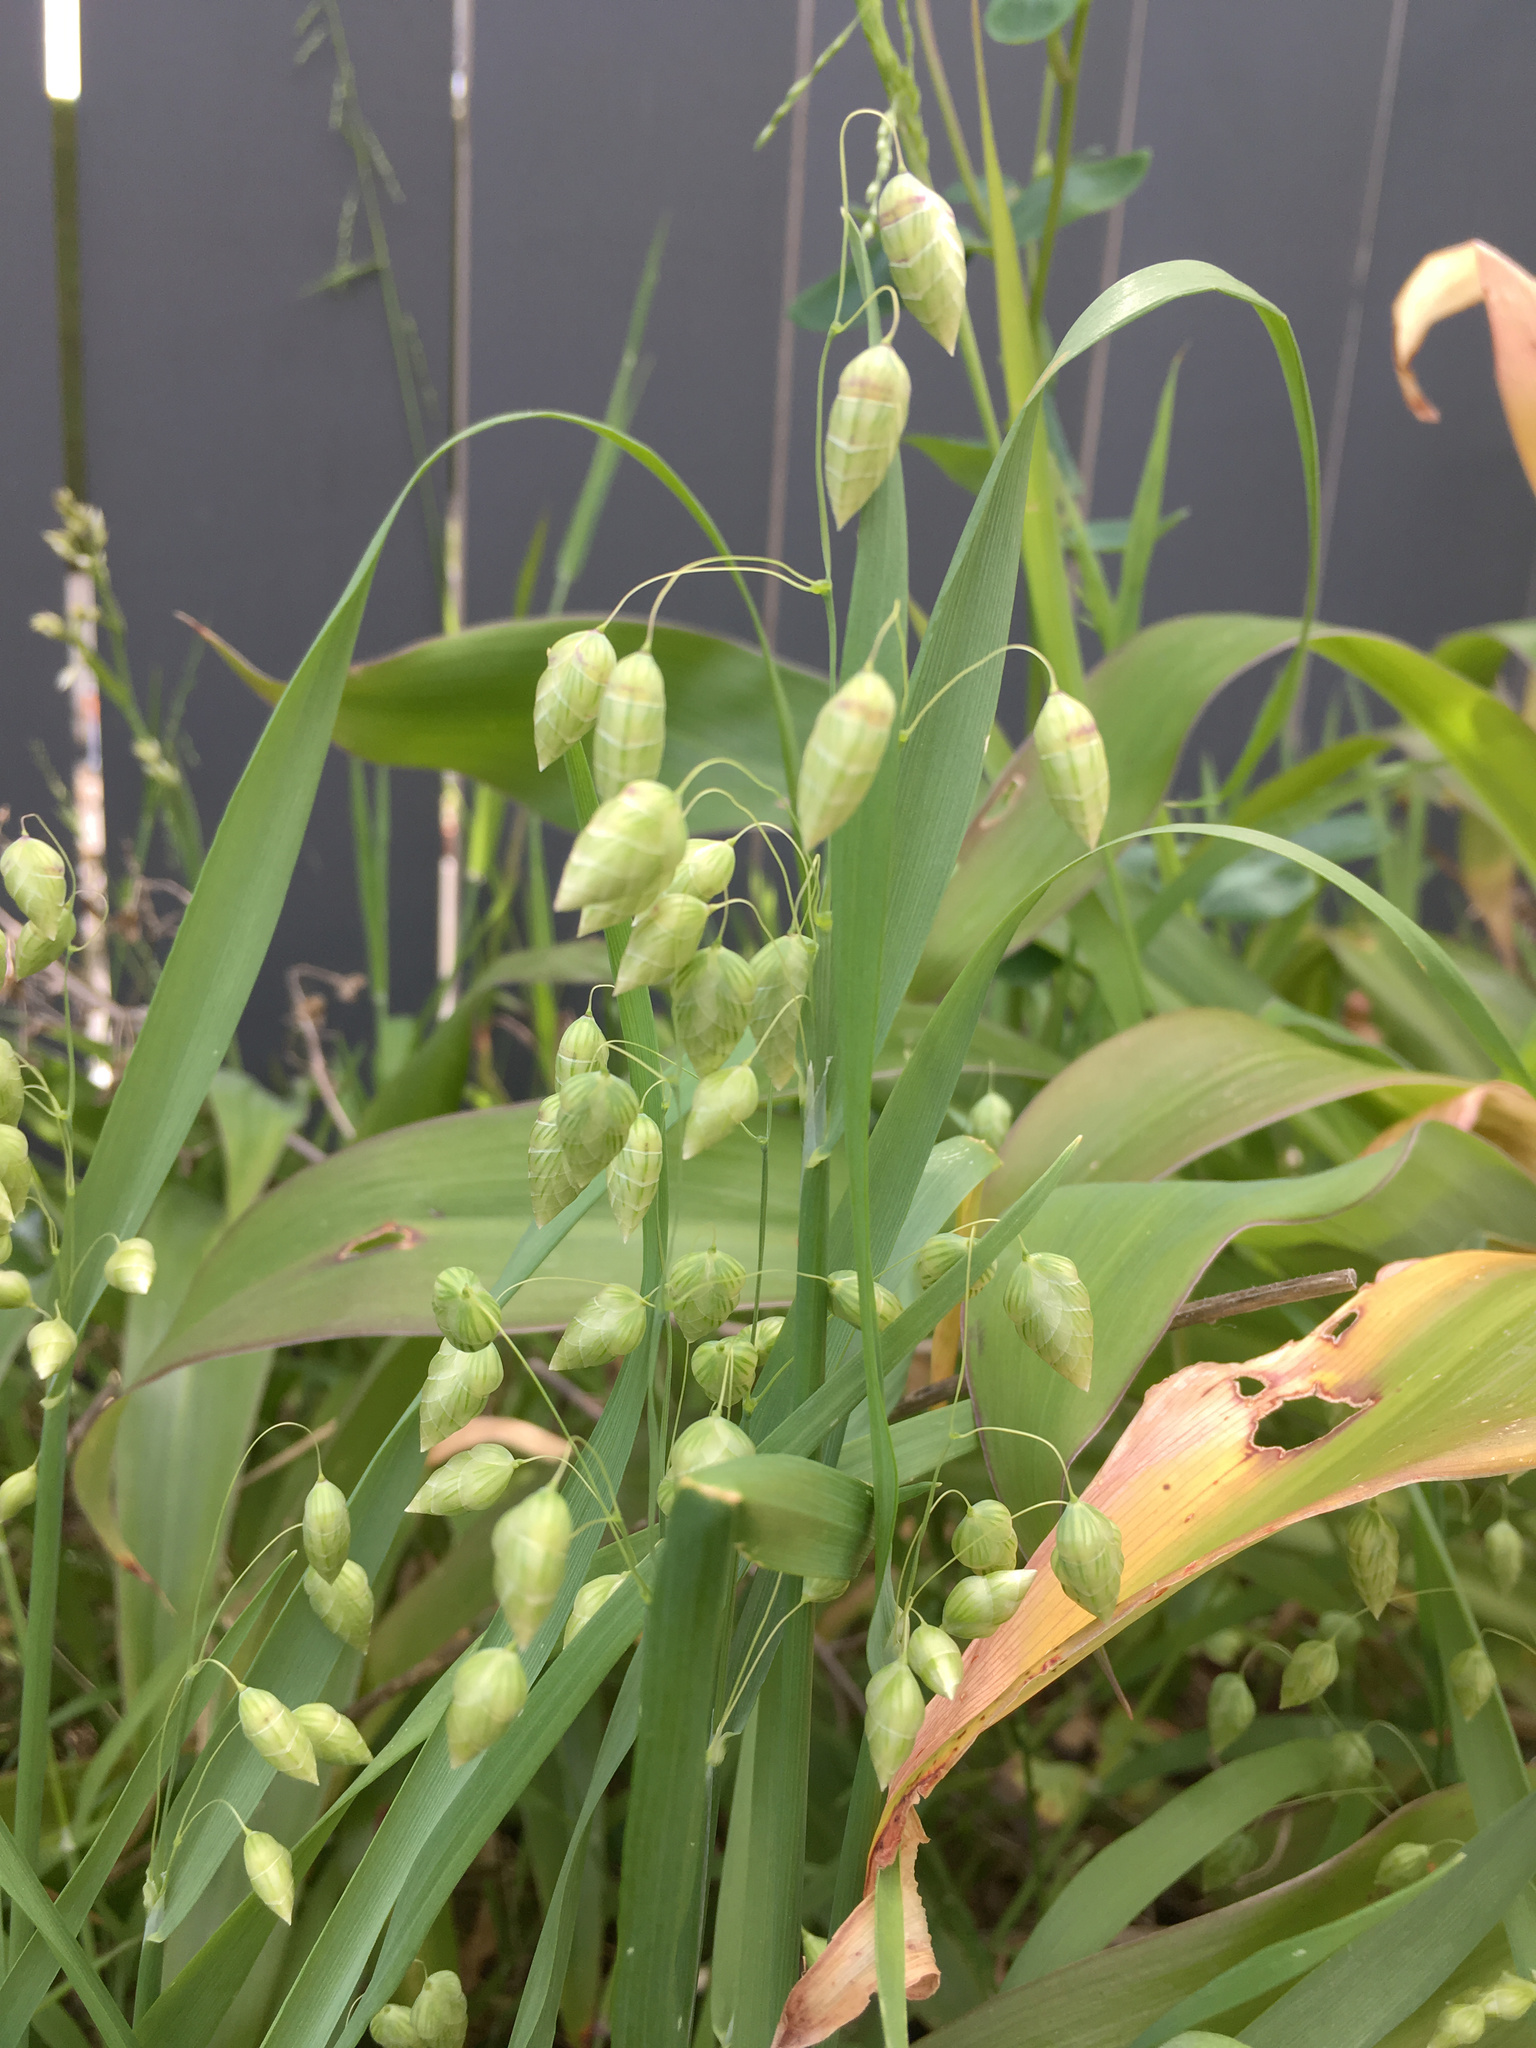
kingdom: Plantae
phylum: Tracheophyta
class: Liliopsida
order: Poales
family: Poaceae
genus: Briza
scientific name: Briza maxima
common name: Big quakinggrass
